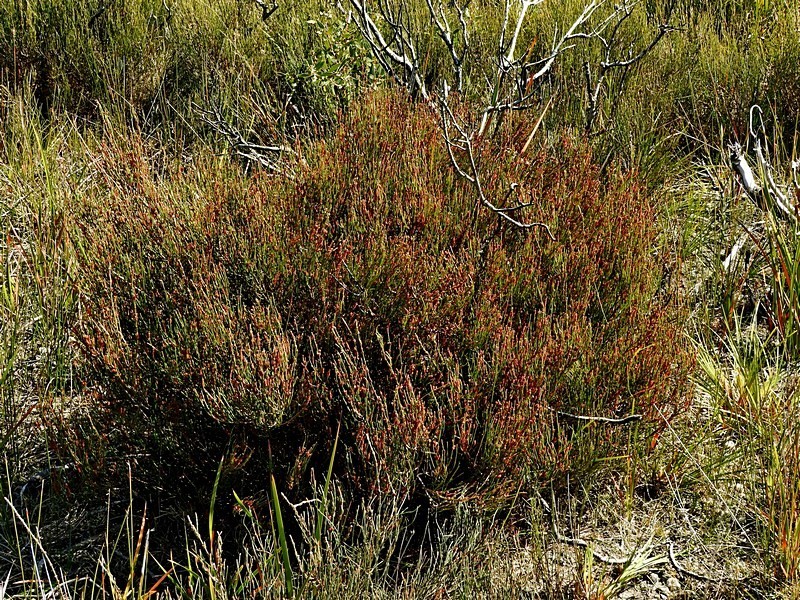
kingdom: Plantae
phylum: Tracheophyta
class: Magnoliopsida
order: Fagales
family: Casuarinaceae
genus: Allocasuarina
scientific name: Allocasuarina paludosa
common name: Scrub she-oak
